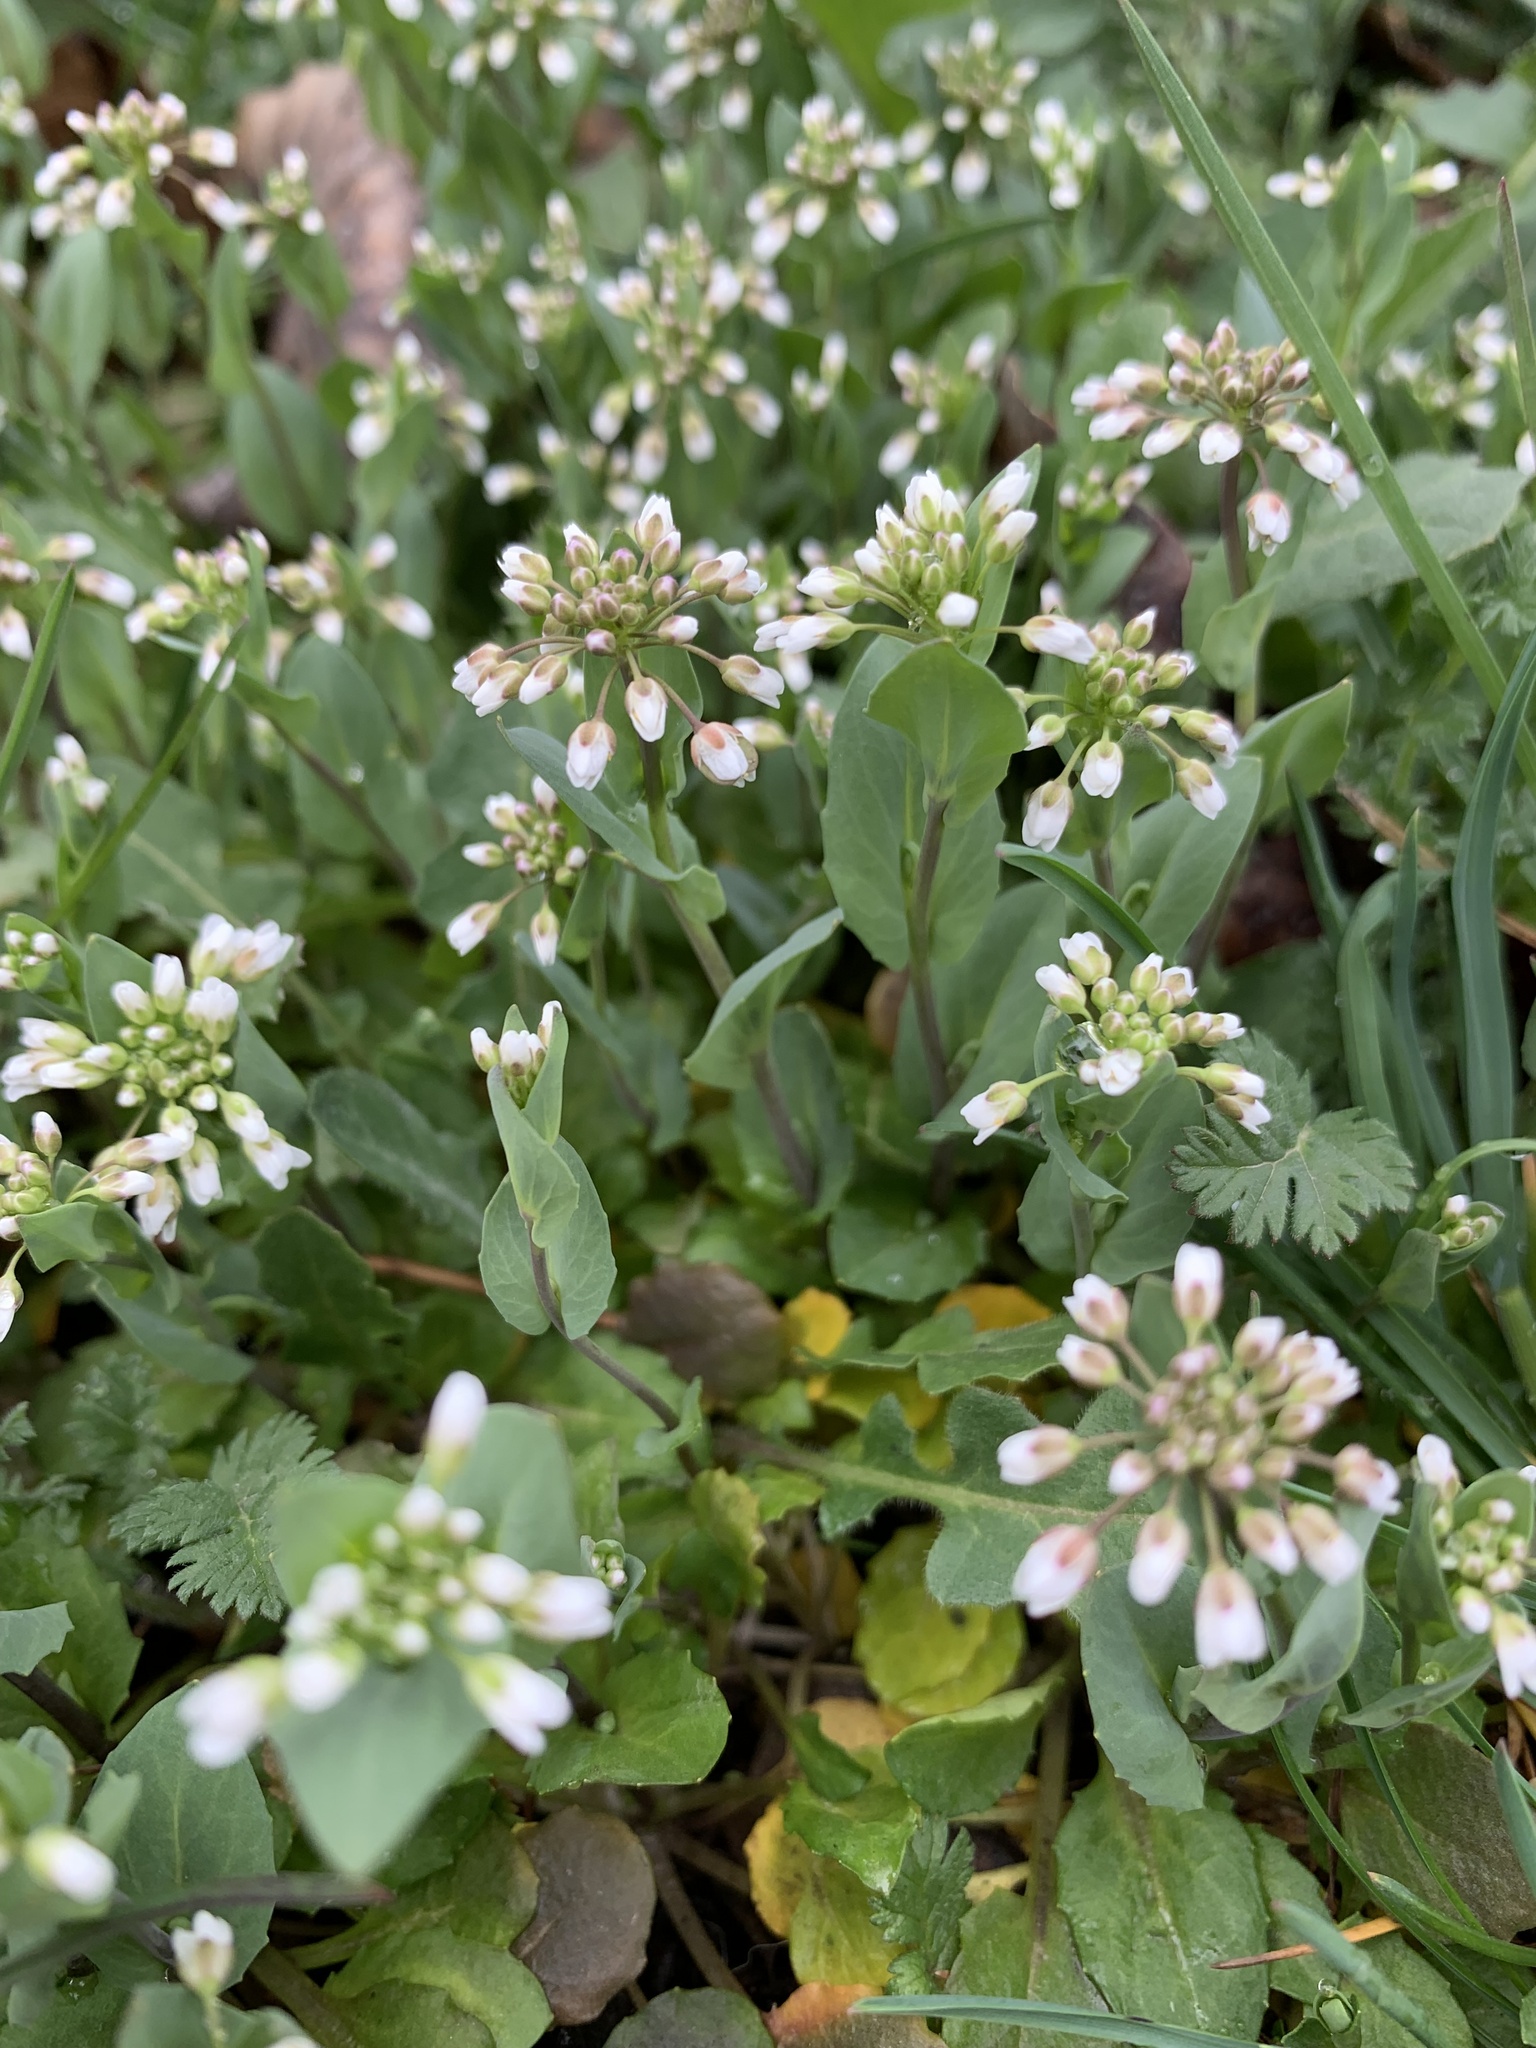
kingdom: Plantae
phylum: Tracheophyta
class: Magnoliopsida
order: Brassicales
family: Brassicaceae
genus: Noccaea
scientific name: Noccaea perfoliata
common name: Perfoliate pennycress
